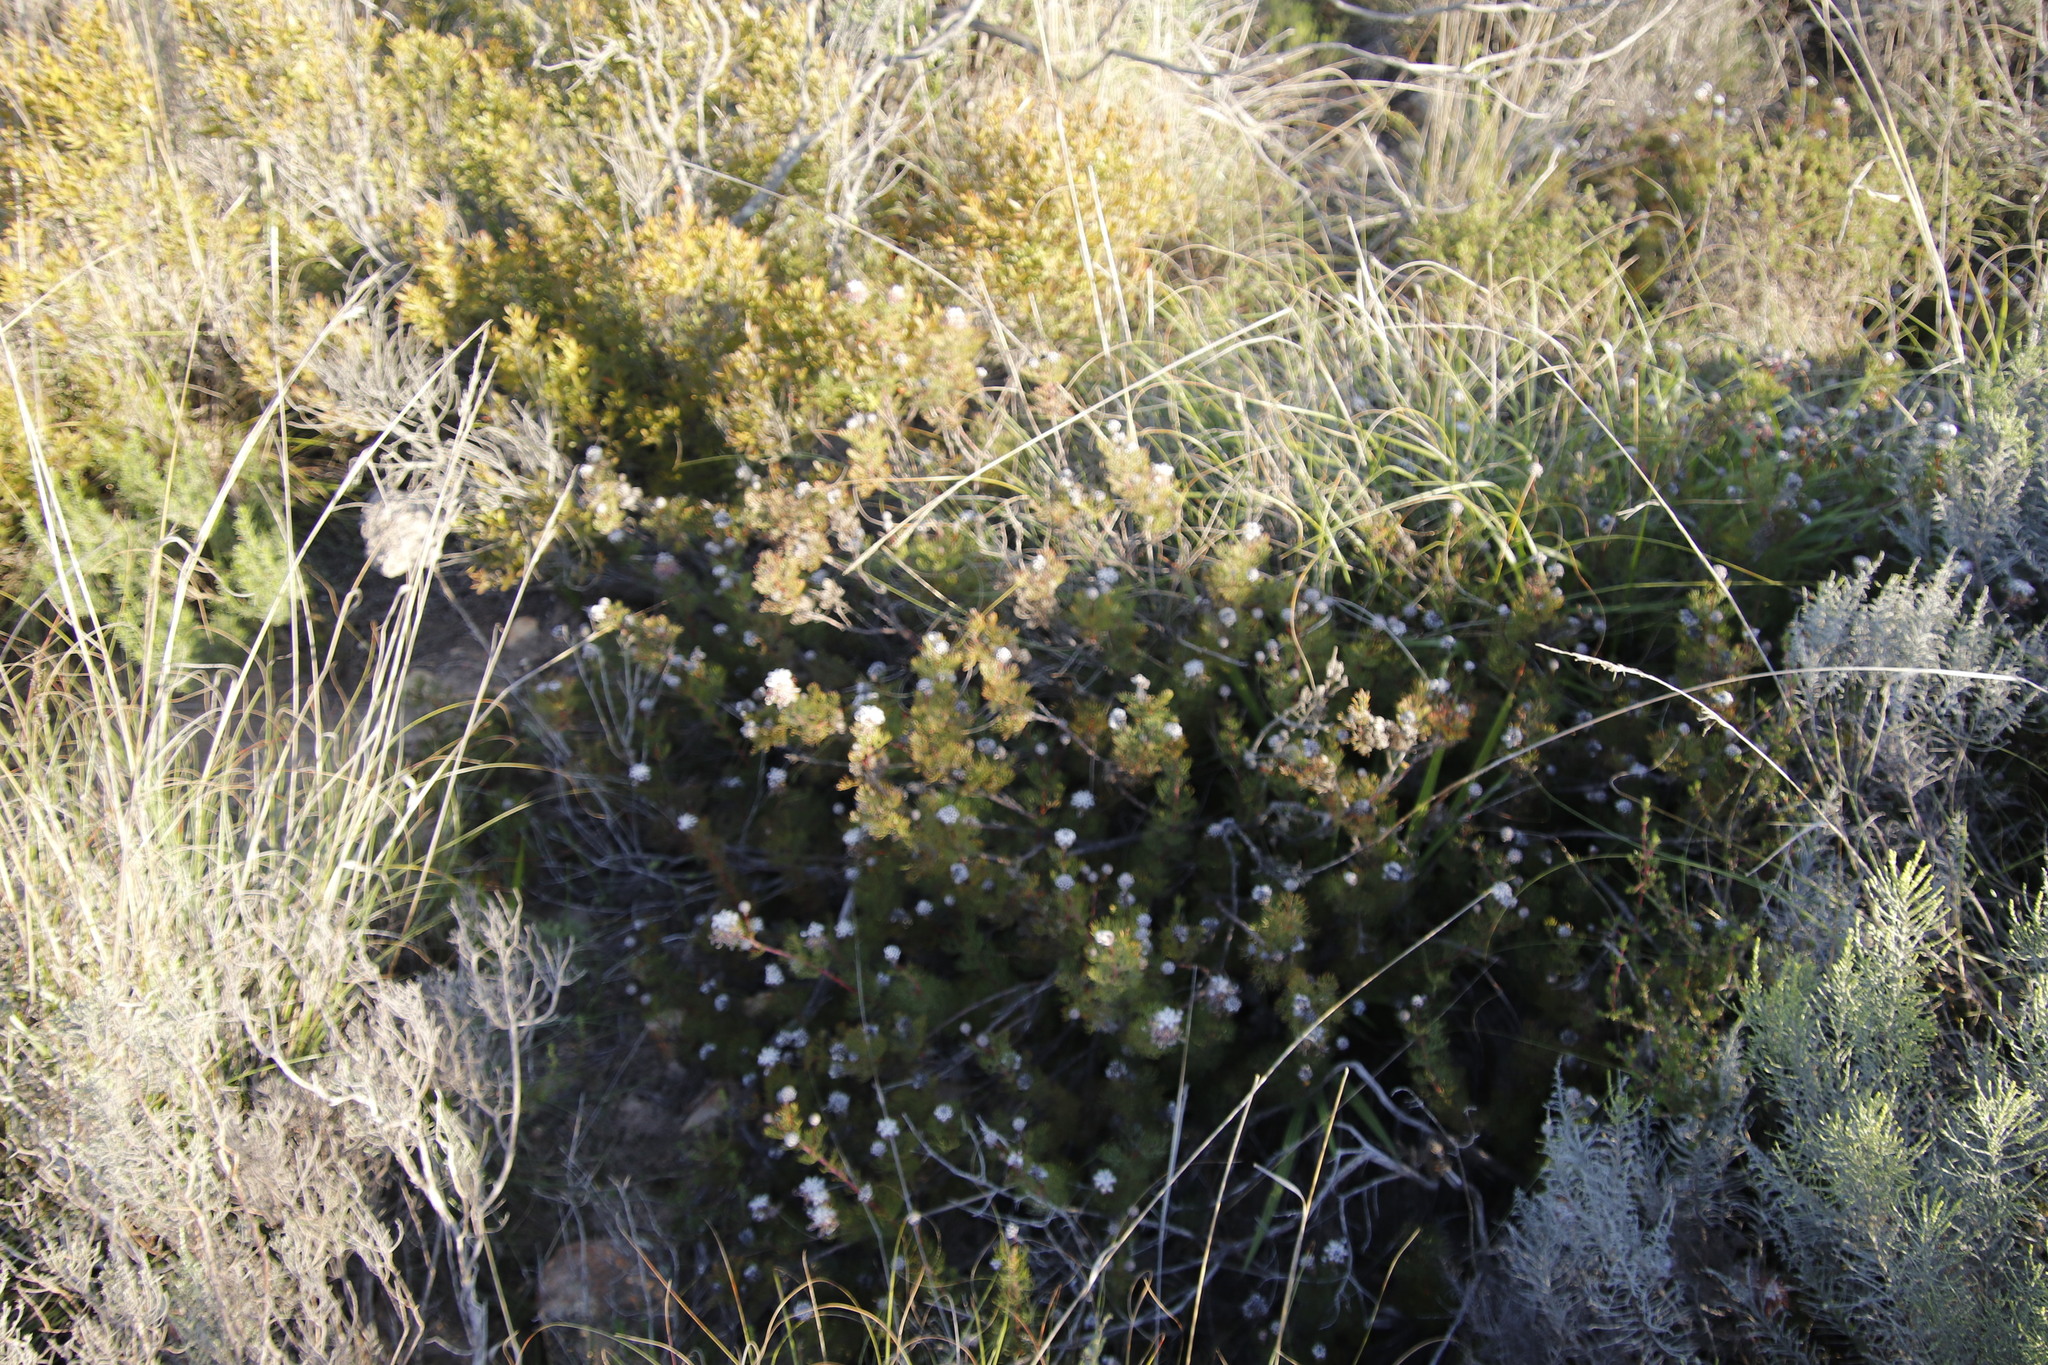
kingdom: Plantae
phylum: Tracheophyta
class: Magnoliopsida
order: Proteales
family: Proteaceae
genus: Serruria
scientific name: Serruria gremialis
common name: Riviersonderend spiderhead
